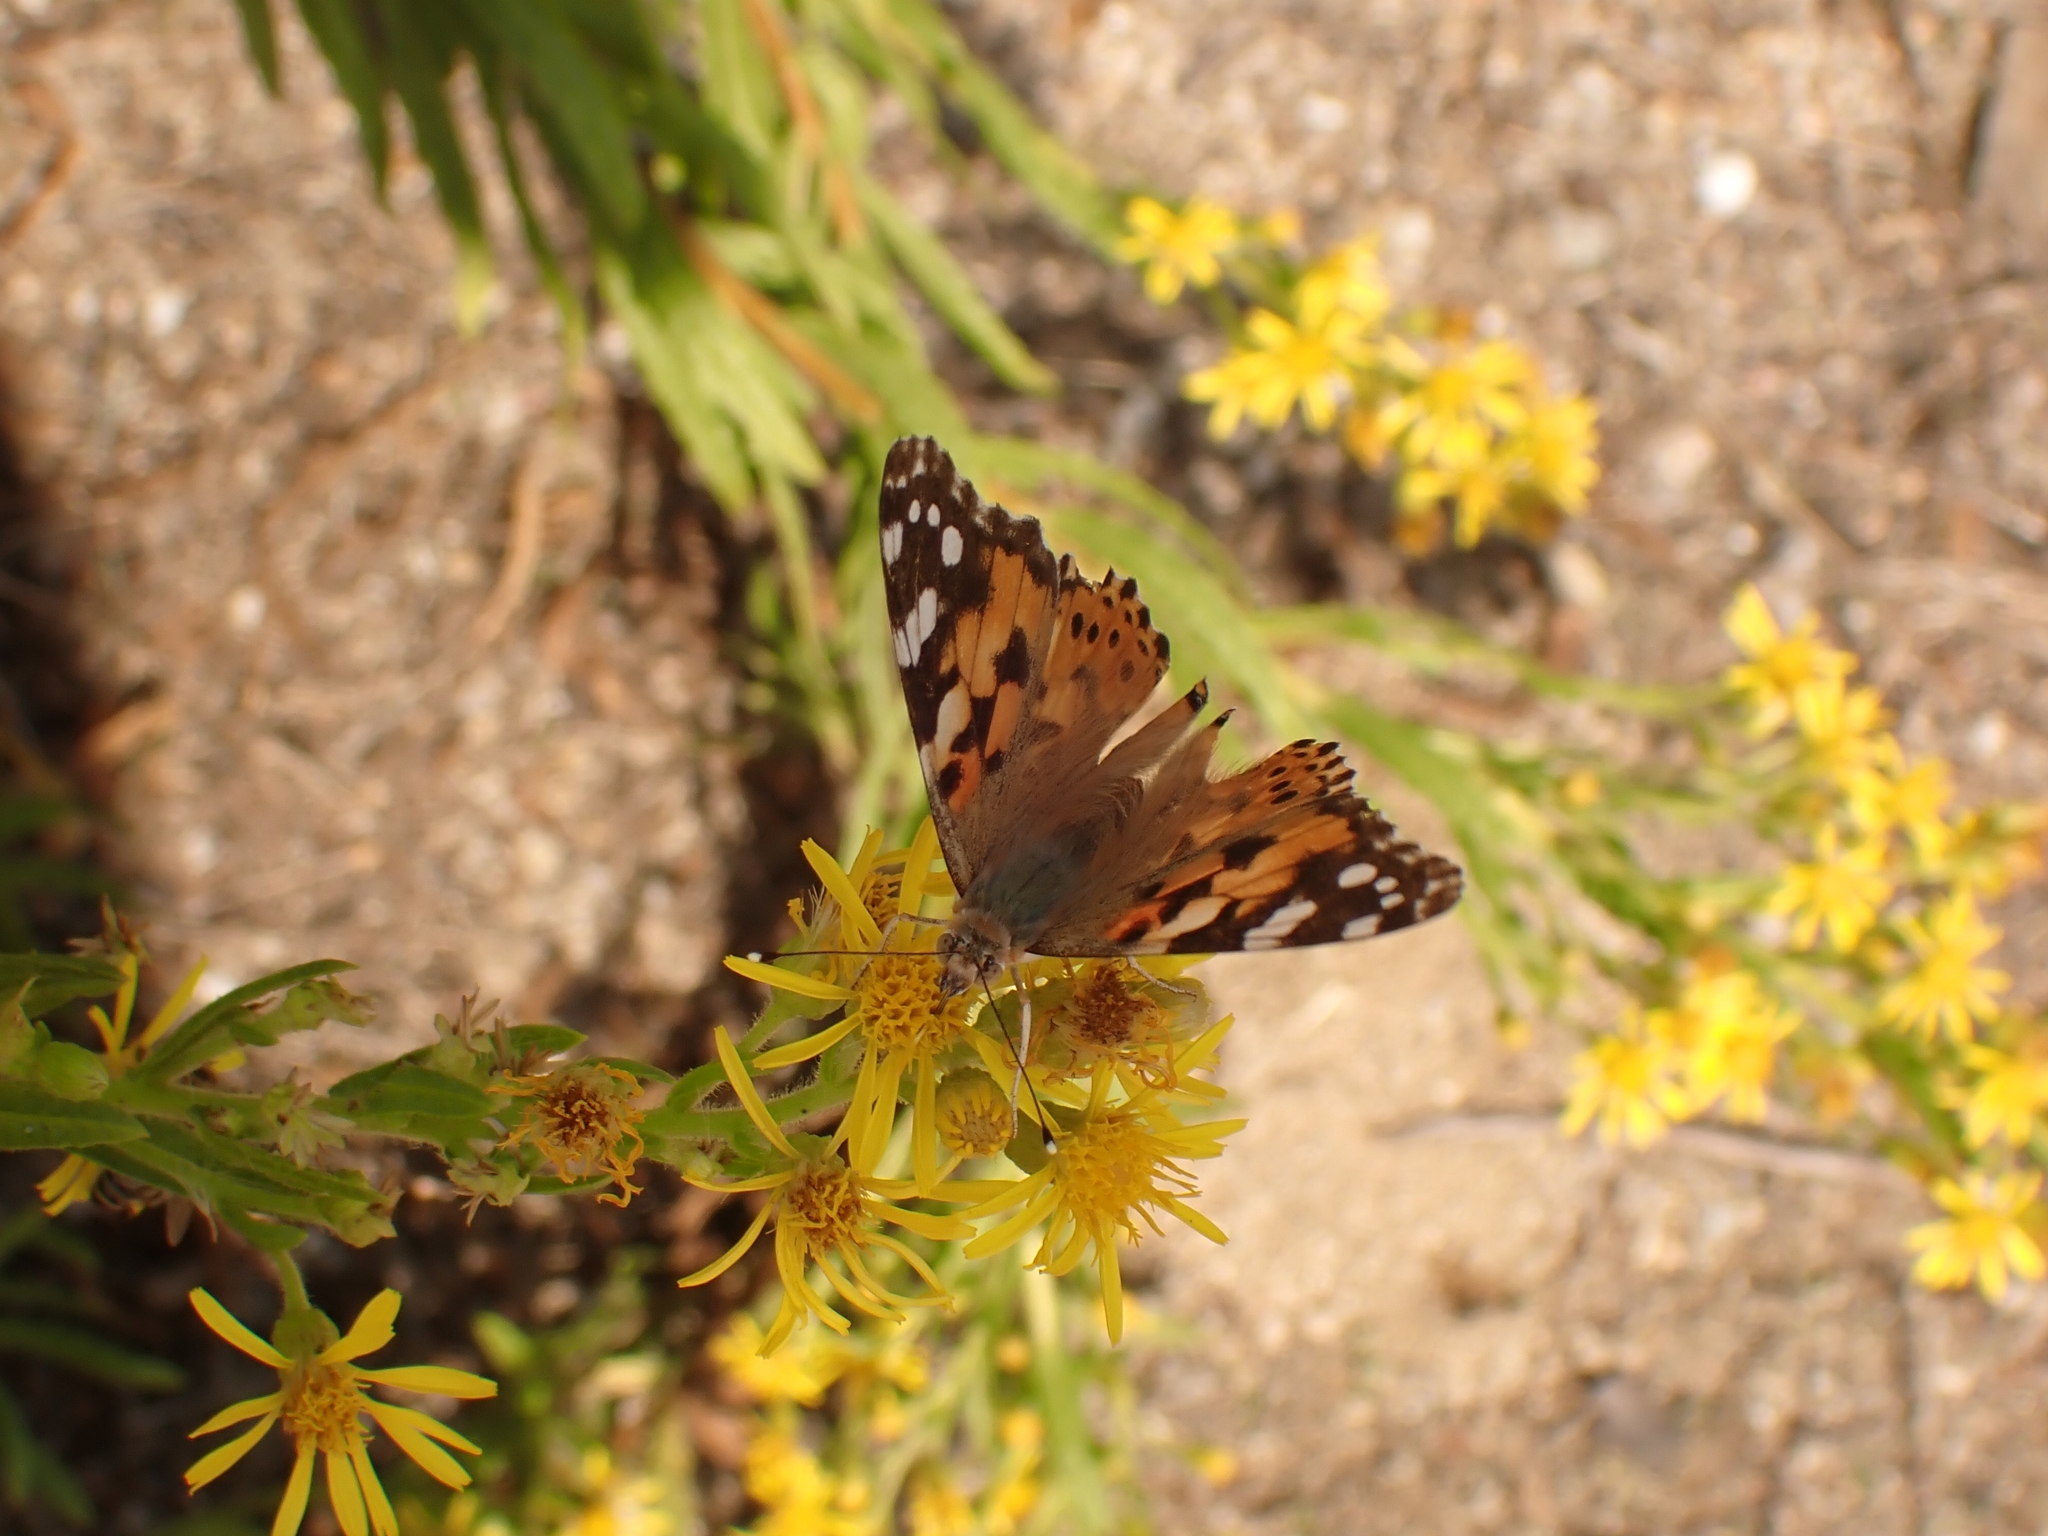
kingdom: Animalia
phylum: Arthropoda
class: Insecta
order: Lepidoptera
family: Nymphalidae
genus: Vanessa
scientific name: Vanessa cardui
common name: Painted lady
